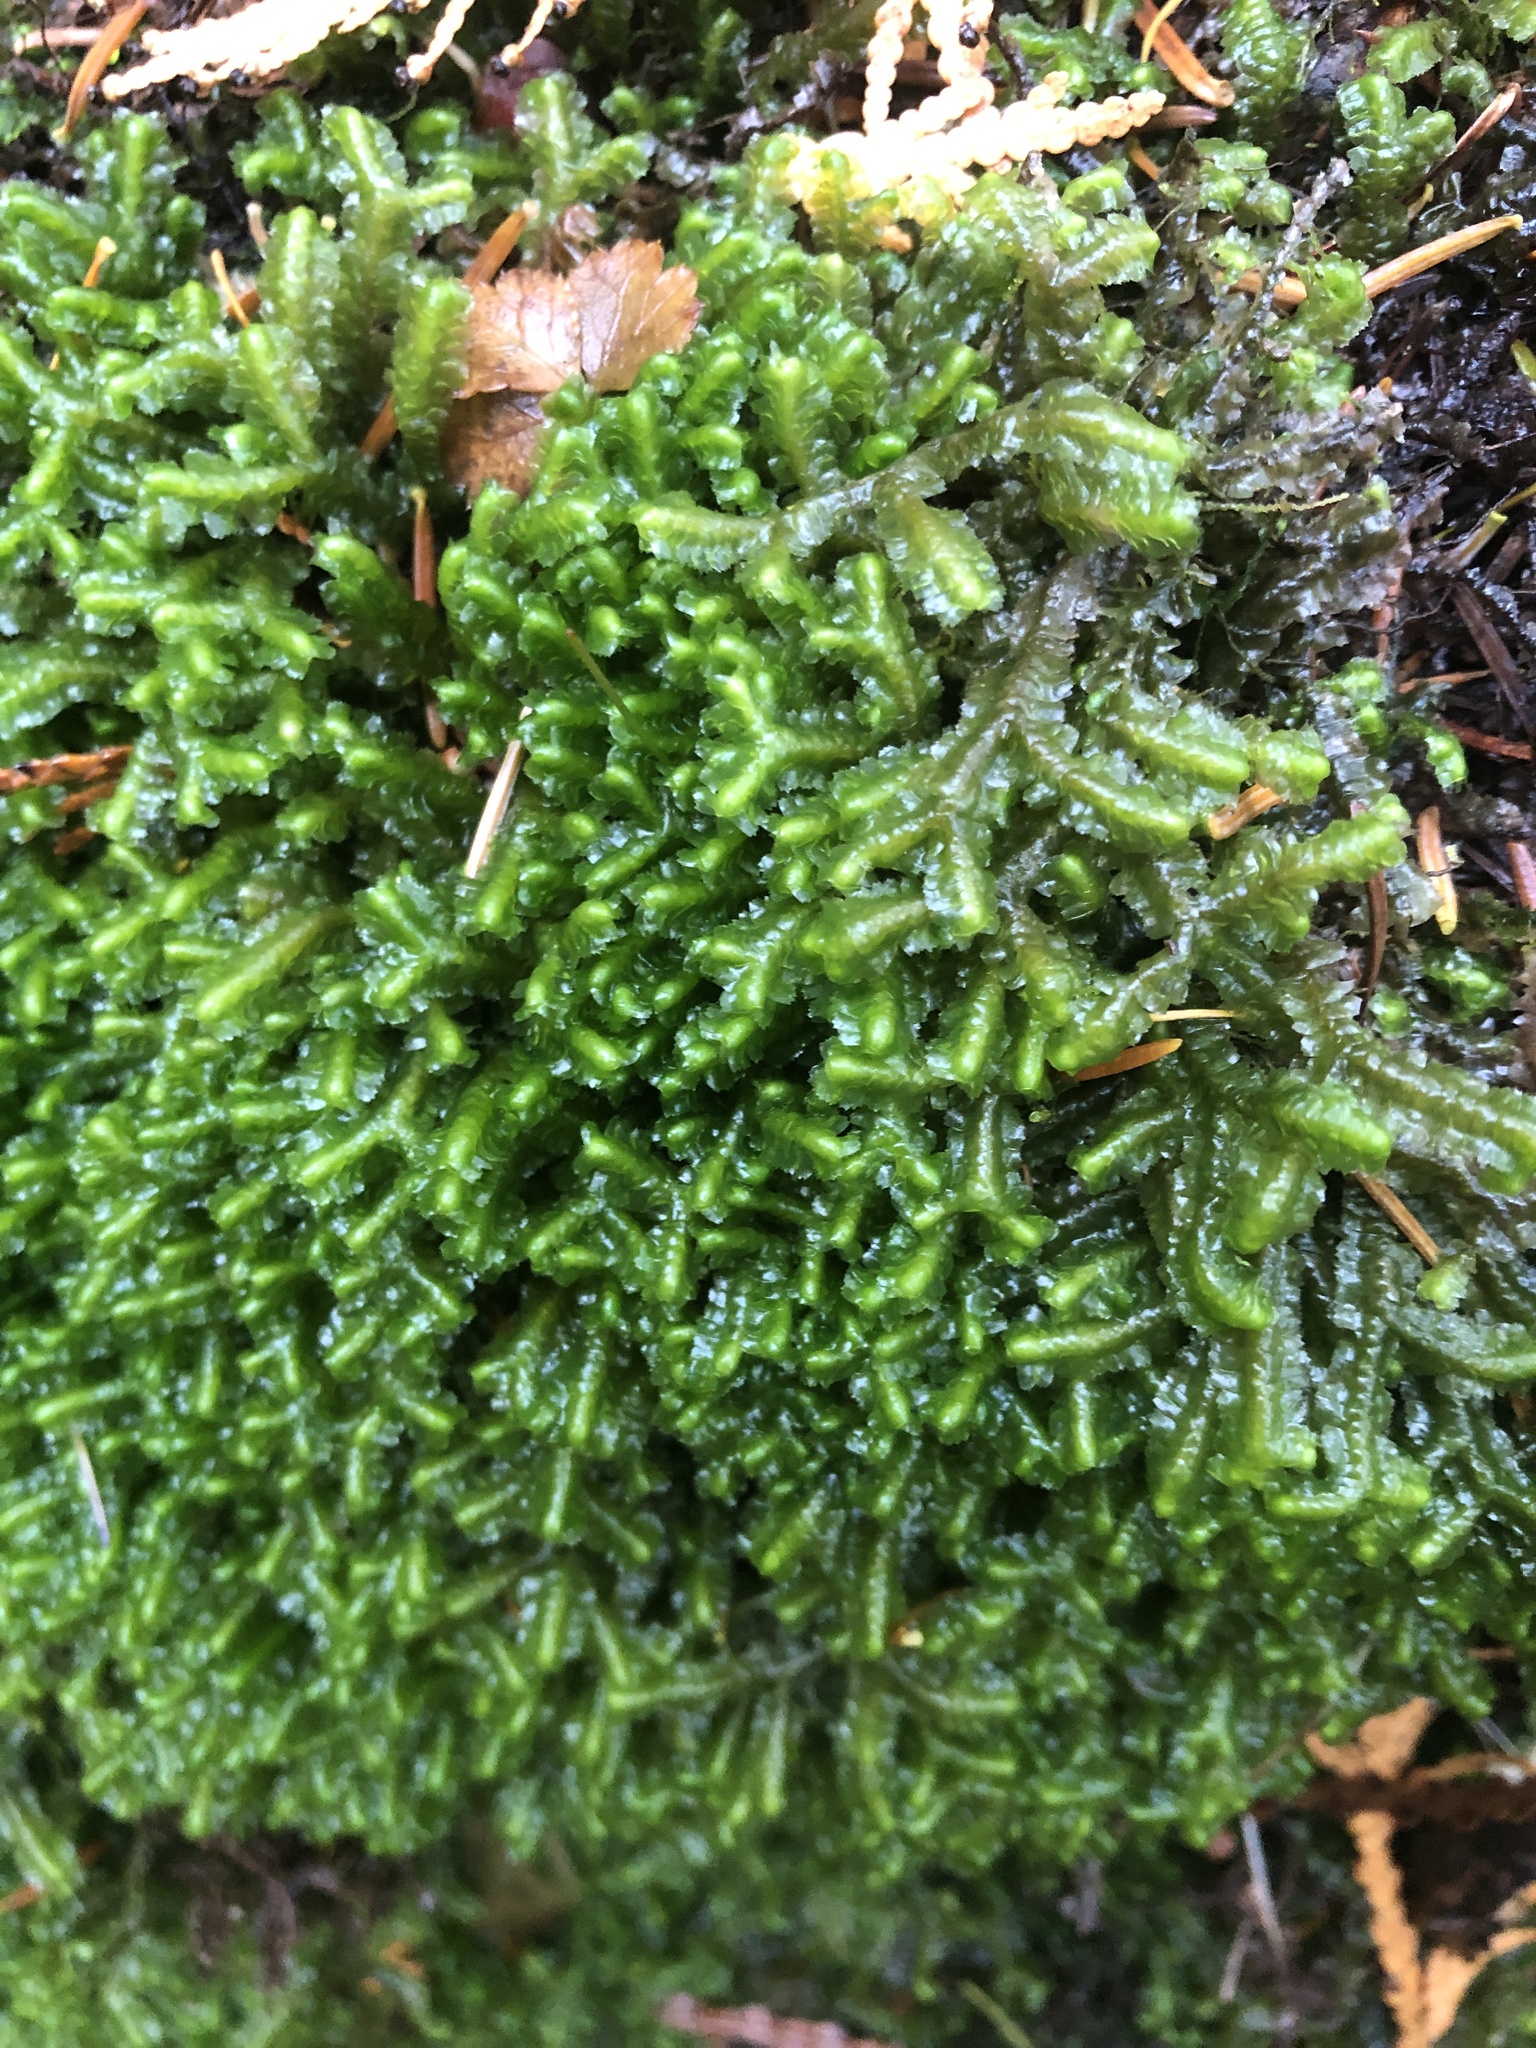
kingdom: Plantae
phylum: Marchantiophyta
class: Jungermanniopsida
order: Jungermanniales
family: Lepidoziaceae
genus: Bazzania
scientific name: Bazzania trilobata
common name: Three-lobed whipwort
